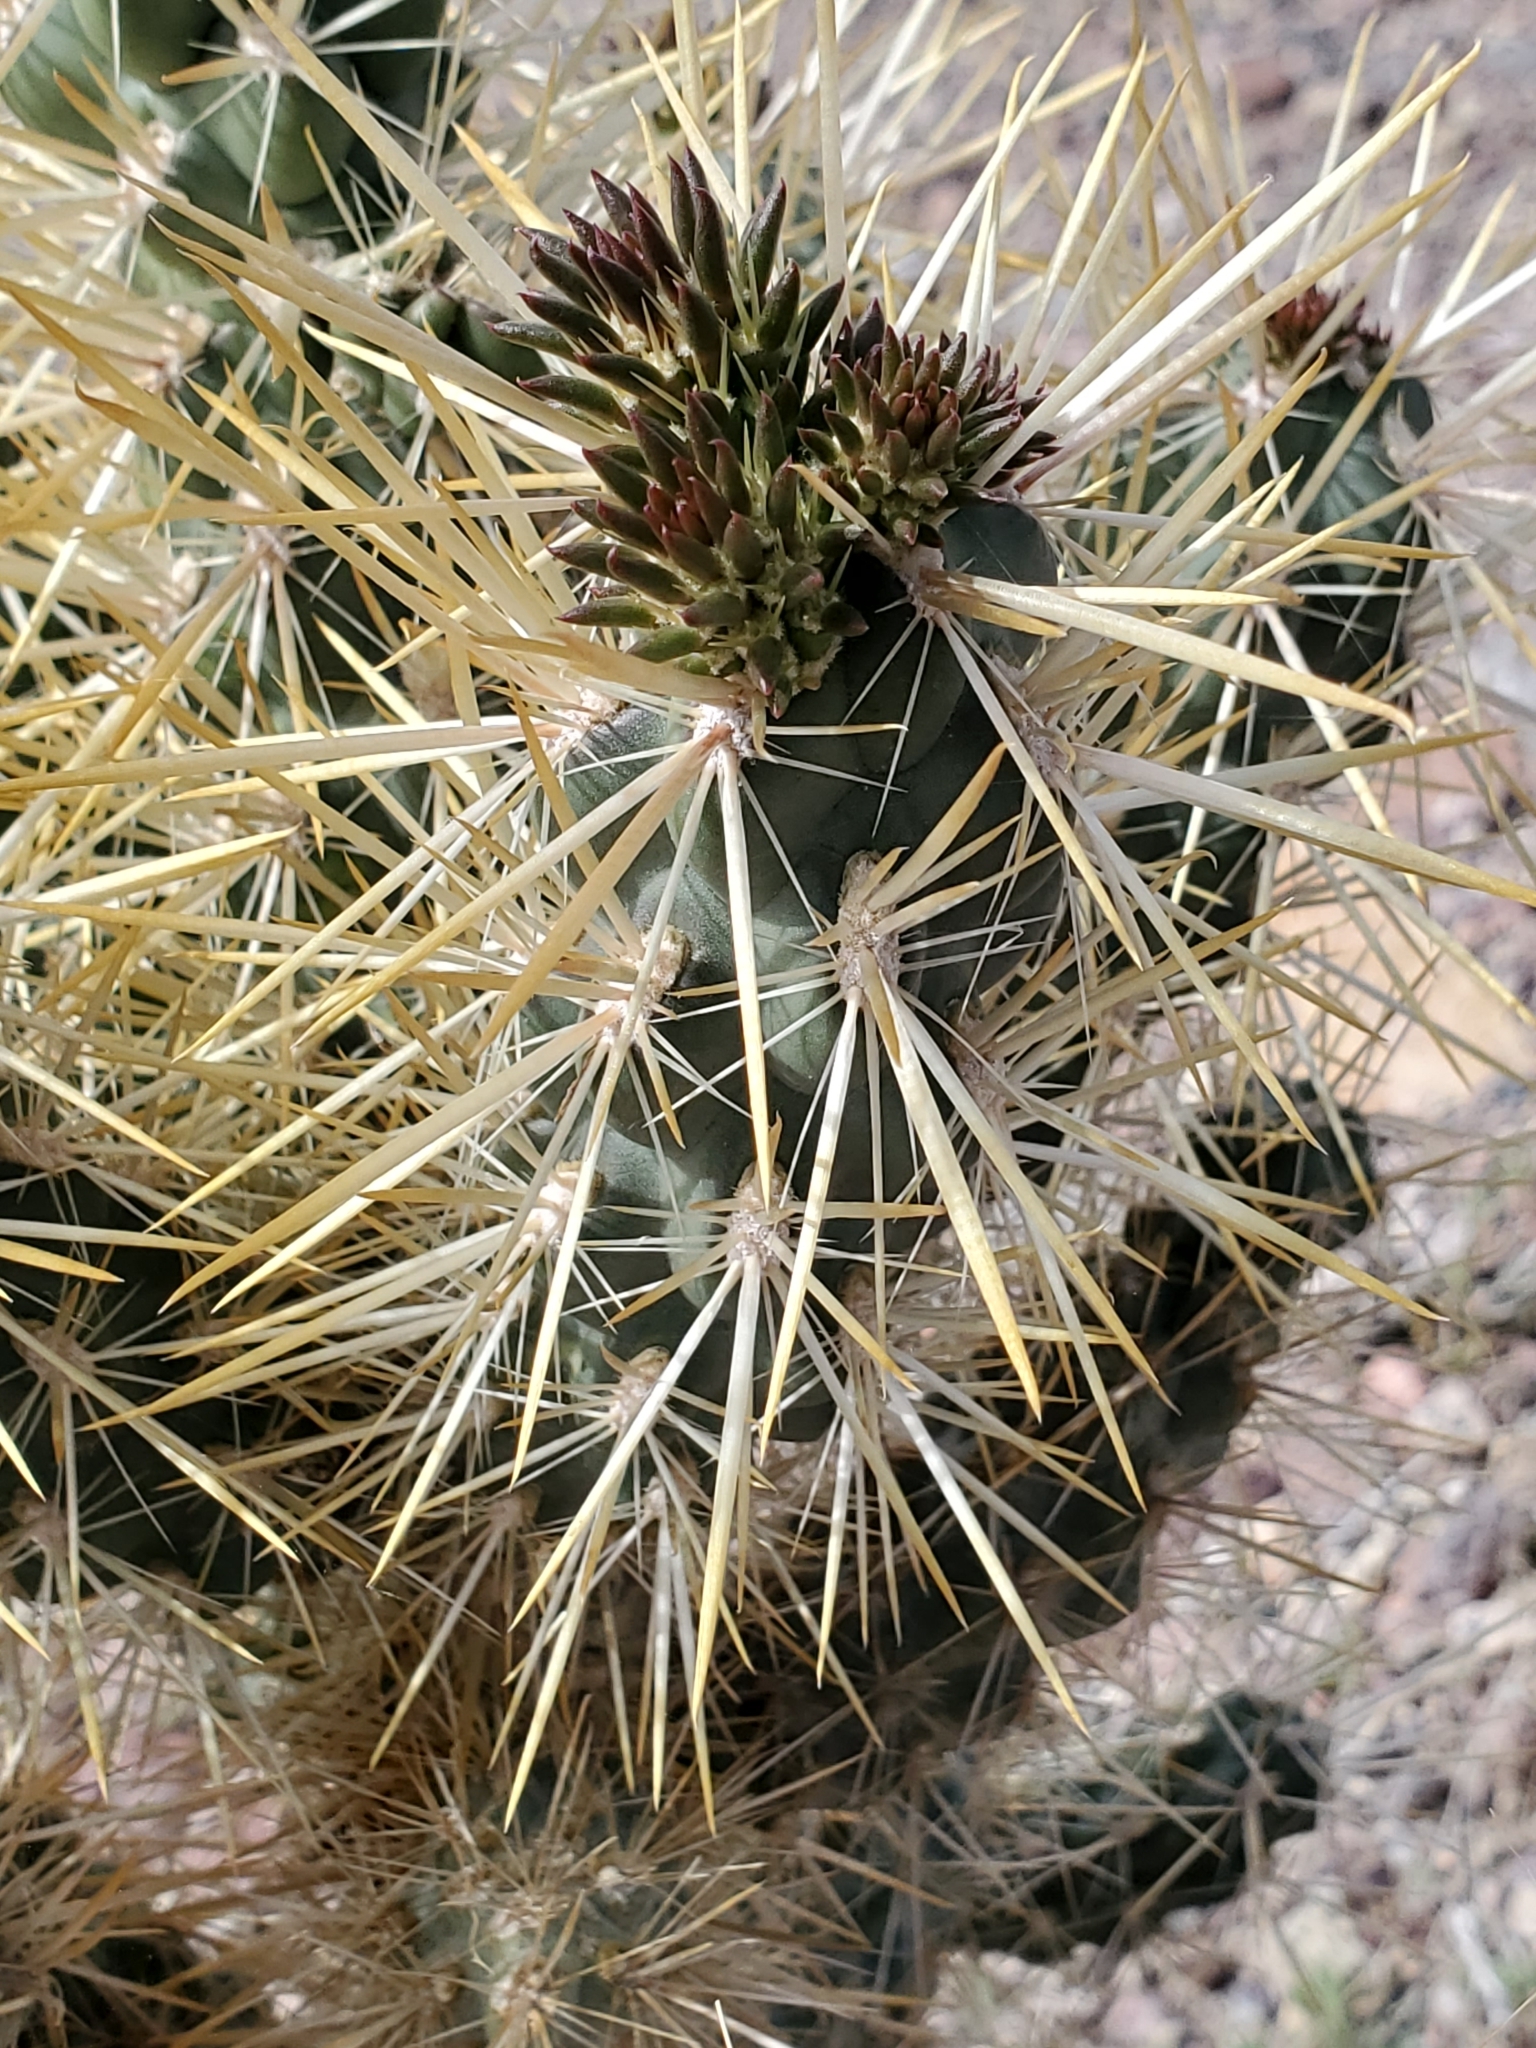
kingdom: Plantae
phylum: Tracheophyta
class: Magnoliopsida
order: Caryophyllales
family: Cactaceae
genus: Cylindropuntia
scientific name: Cylindropuntia echinocarpa
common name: Ground cholla
